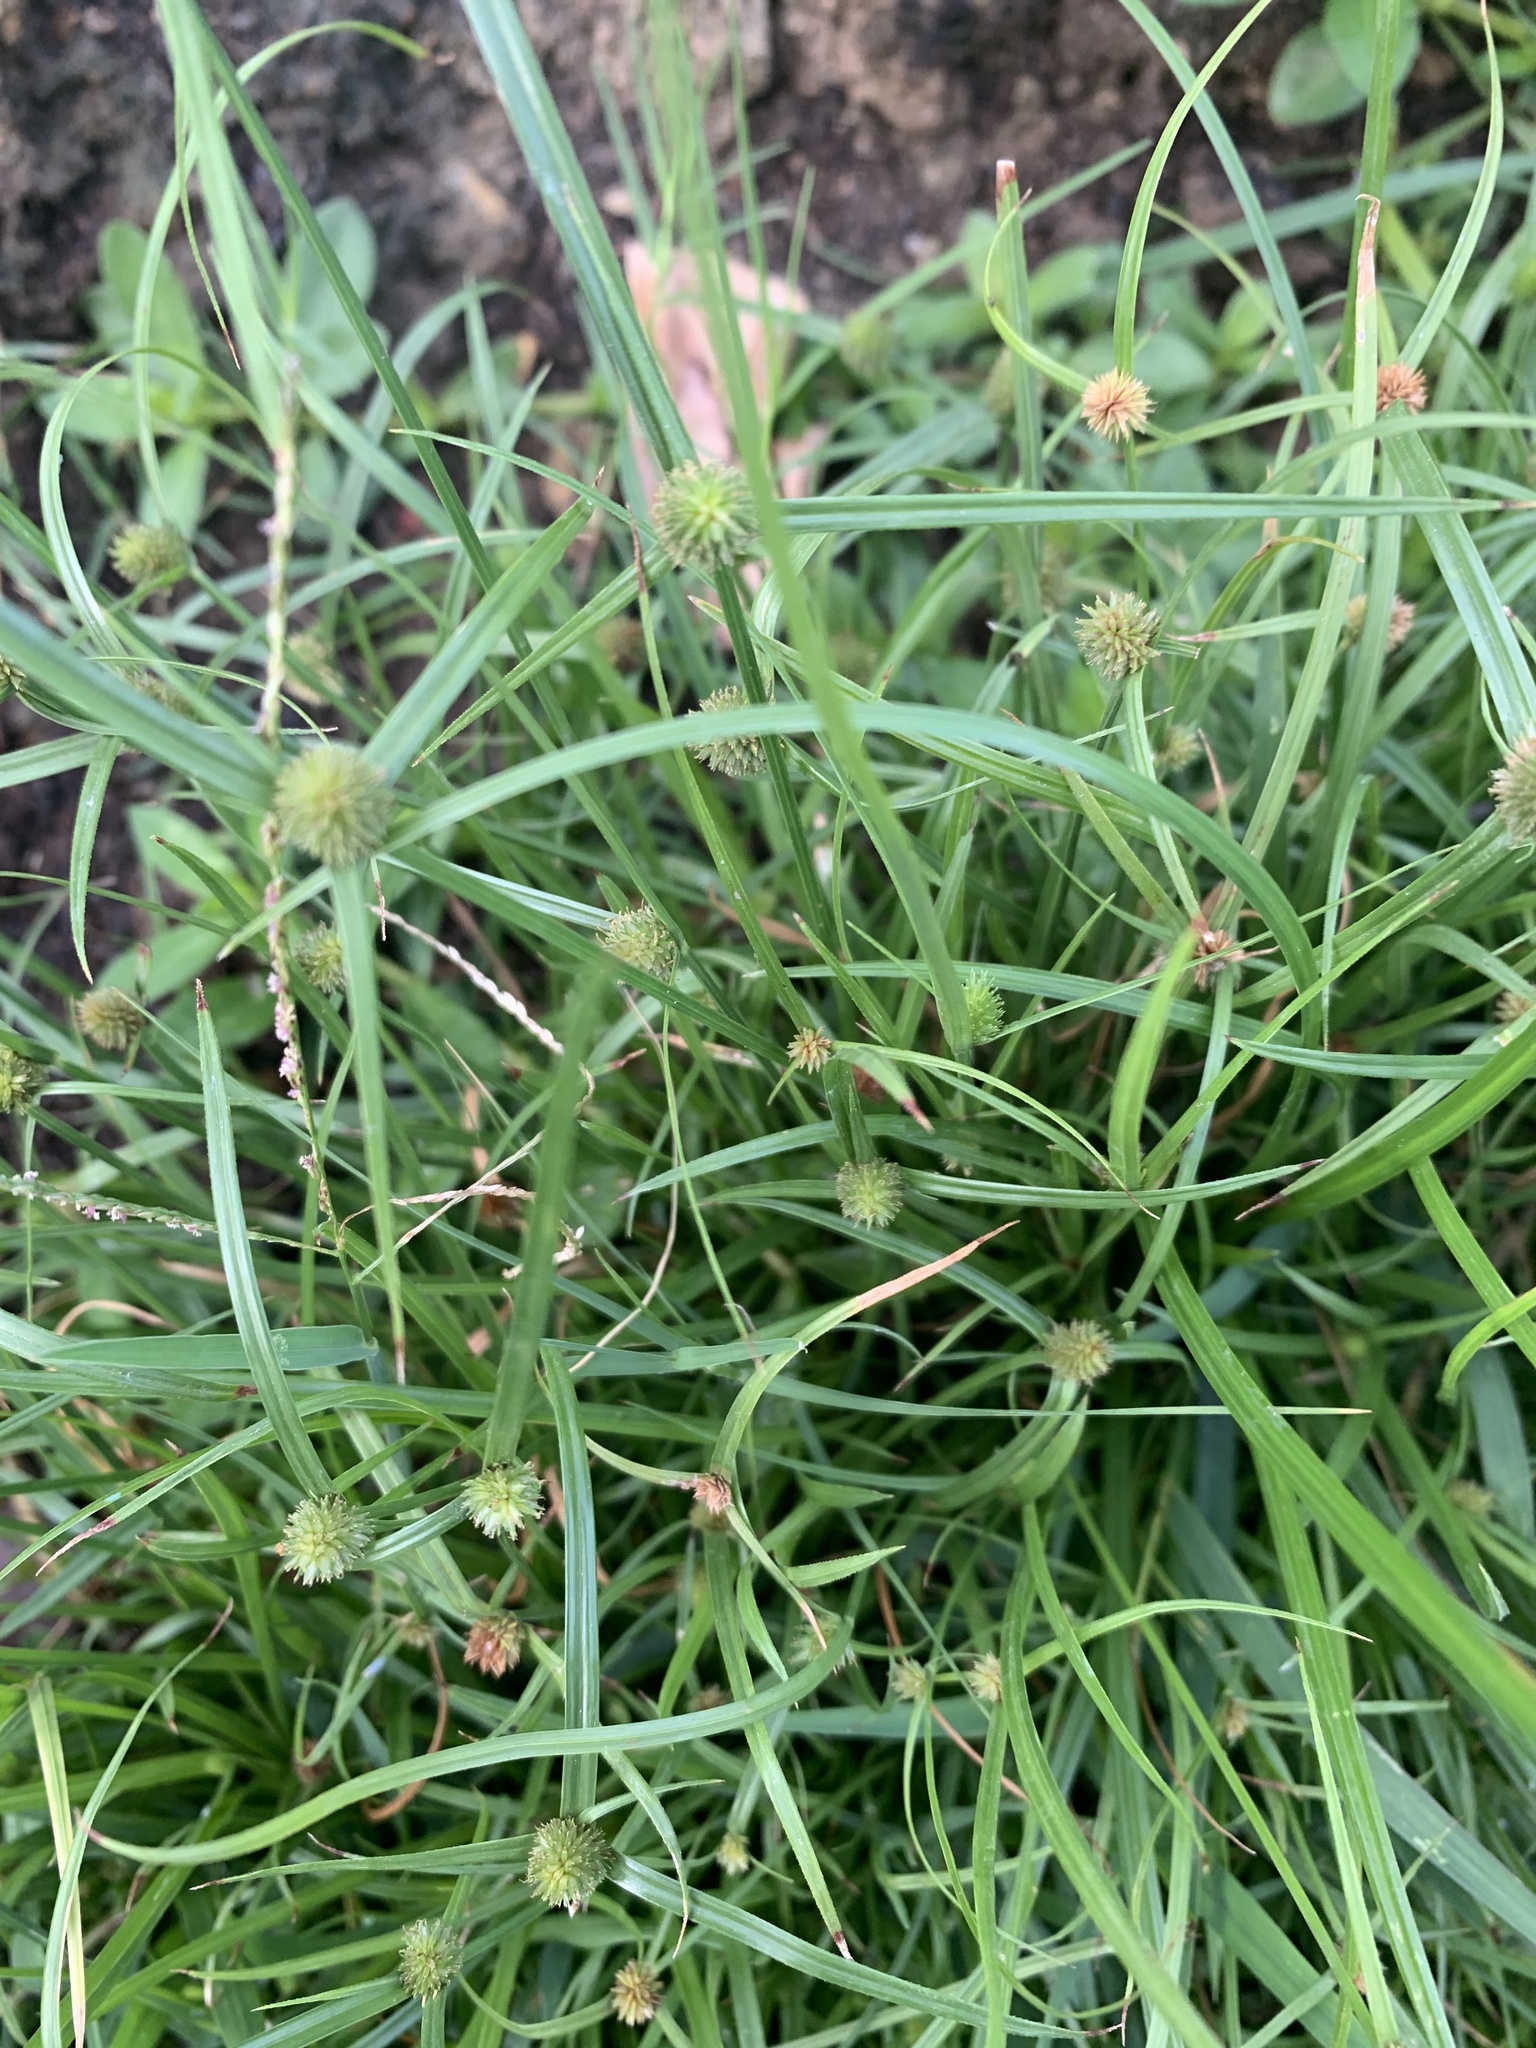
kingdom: Plantae
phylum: Tracheophyta
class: Liliopsida
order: Poales
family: Cyperaceae
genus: Cyperus
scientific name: Cyperus brevifolius
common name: Globe kyllinga
